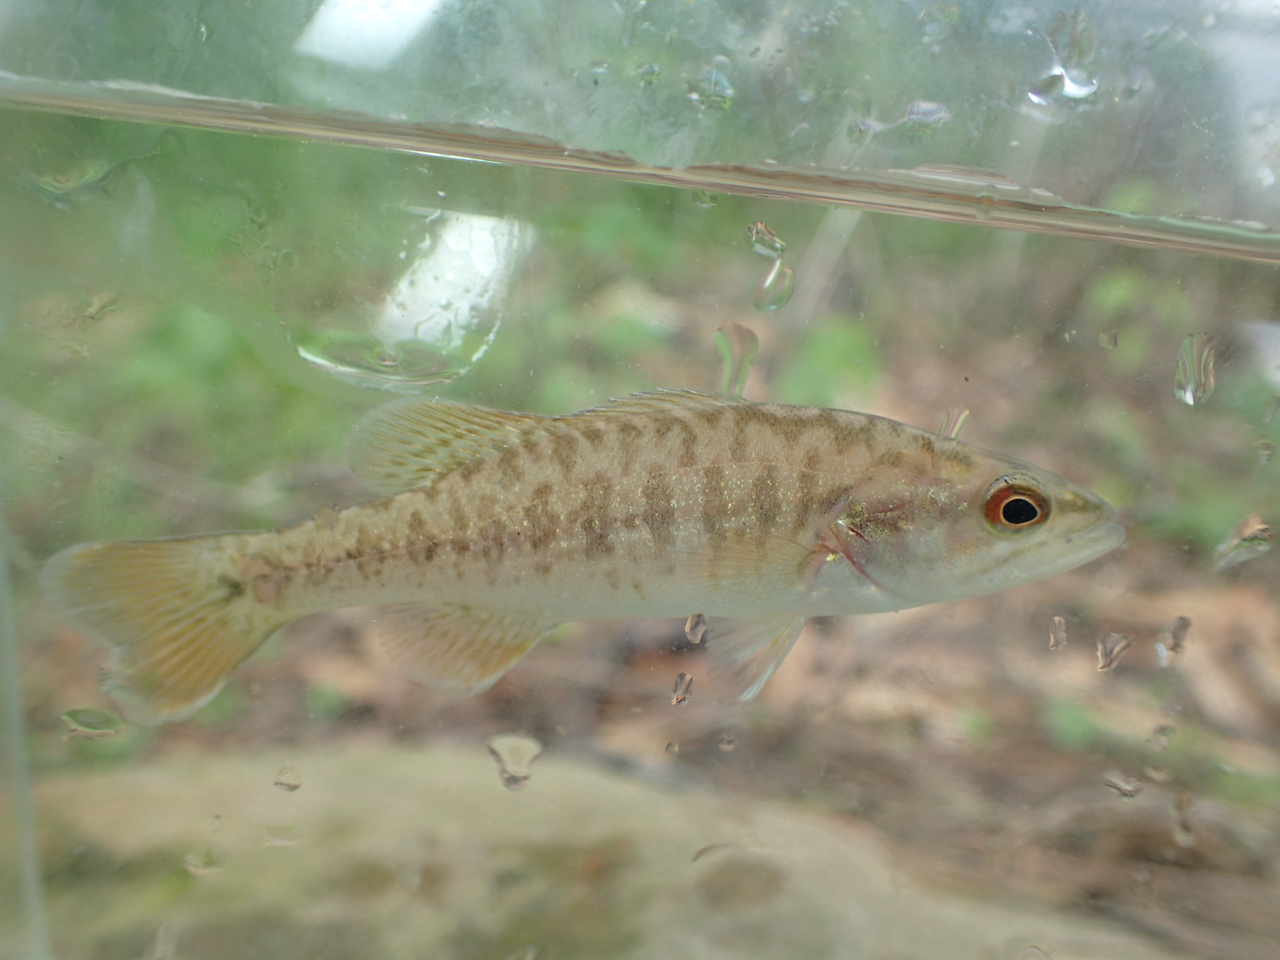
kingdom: Animalia
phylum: Chordata
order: Perciformes
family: Centrarchidae
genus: Micropterus
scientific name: Micropterus warriorensis
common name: Warrior bass
